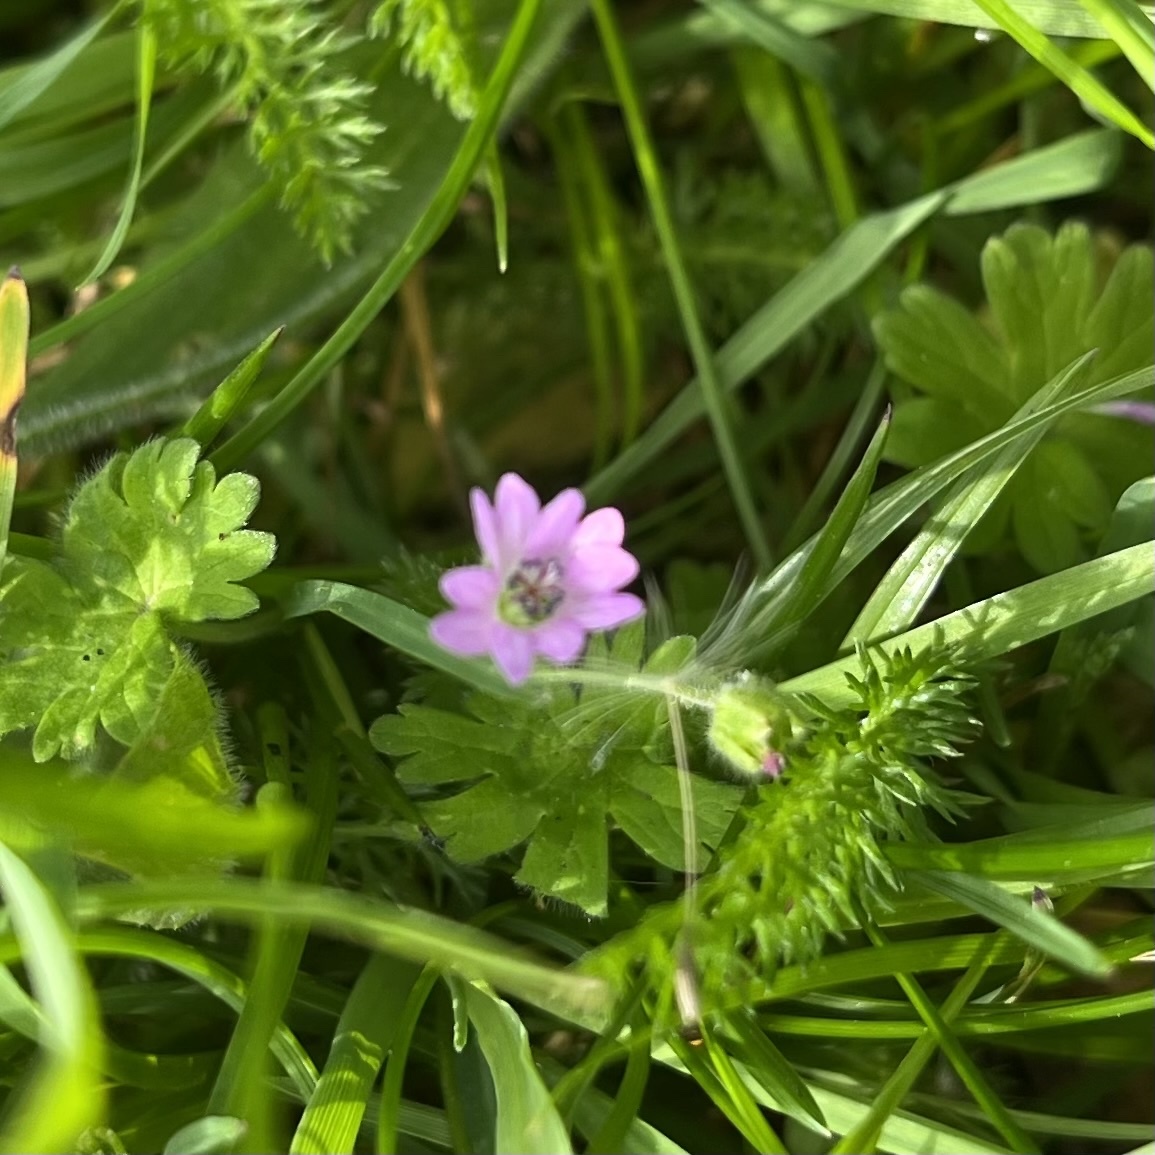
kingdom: Plantae
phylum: Tracheophyta
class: Magnoliopsida
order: Geraniales
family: Geraniaceae
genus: Geranium
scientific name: Geranium molle
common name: Dove's-foot crane's-bill
